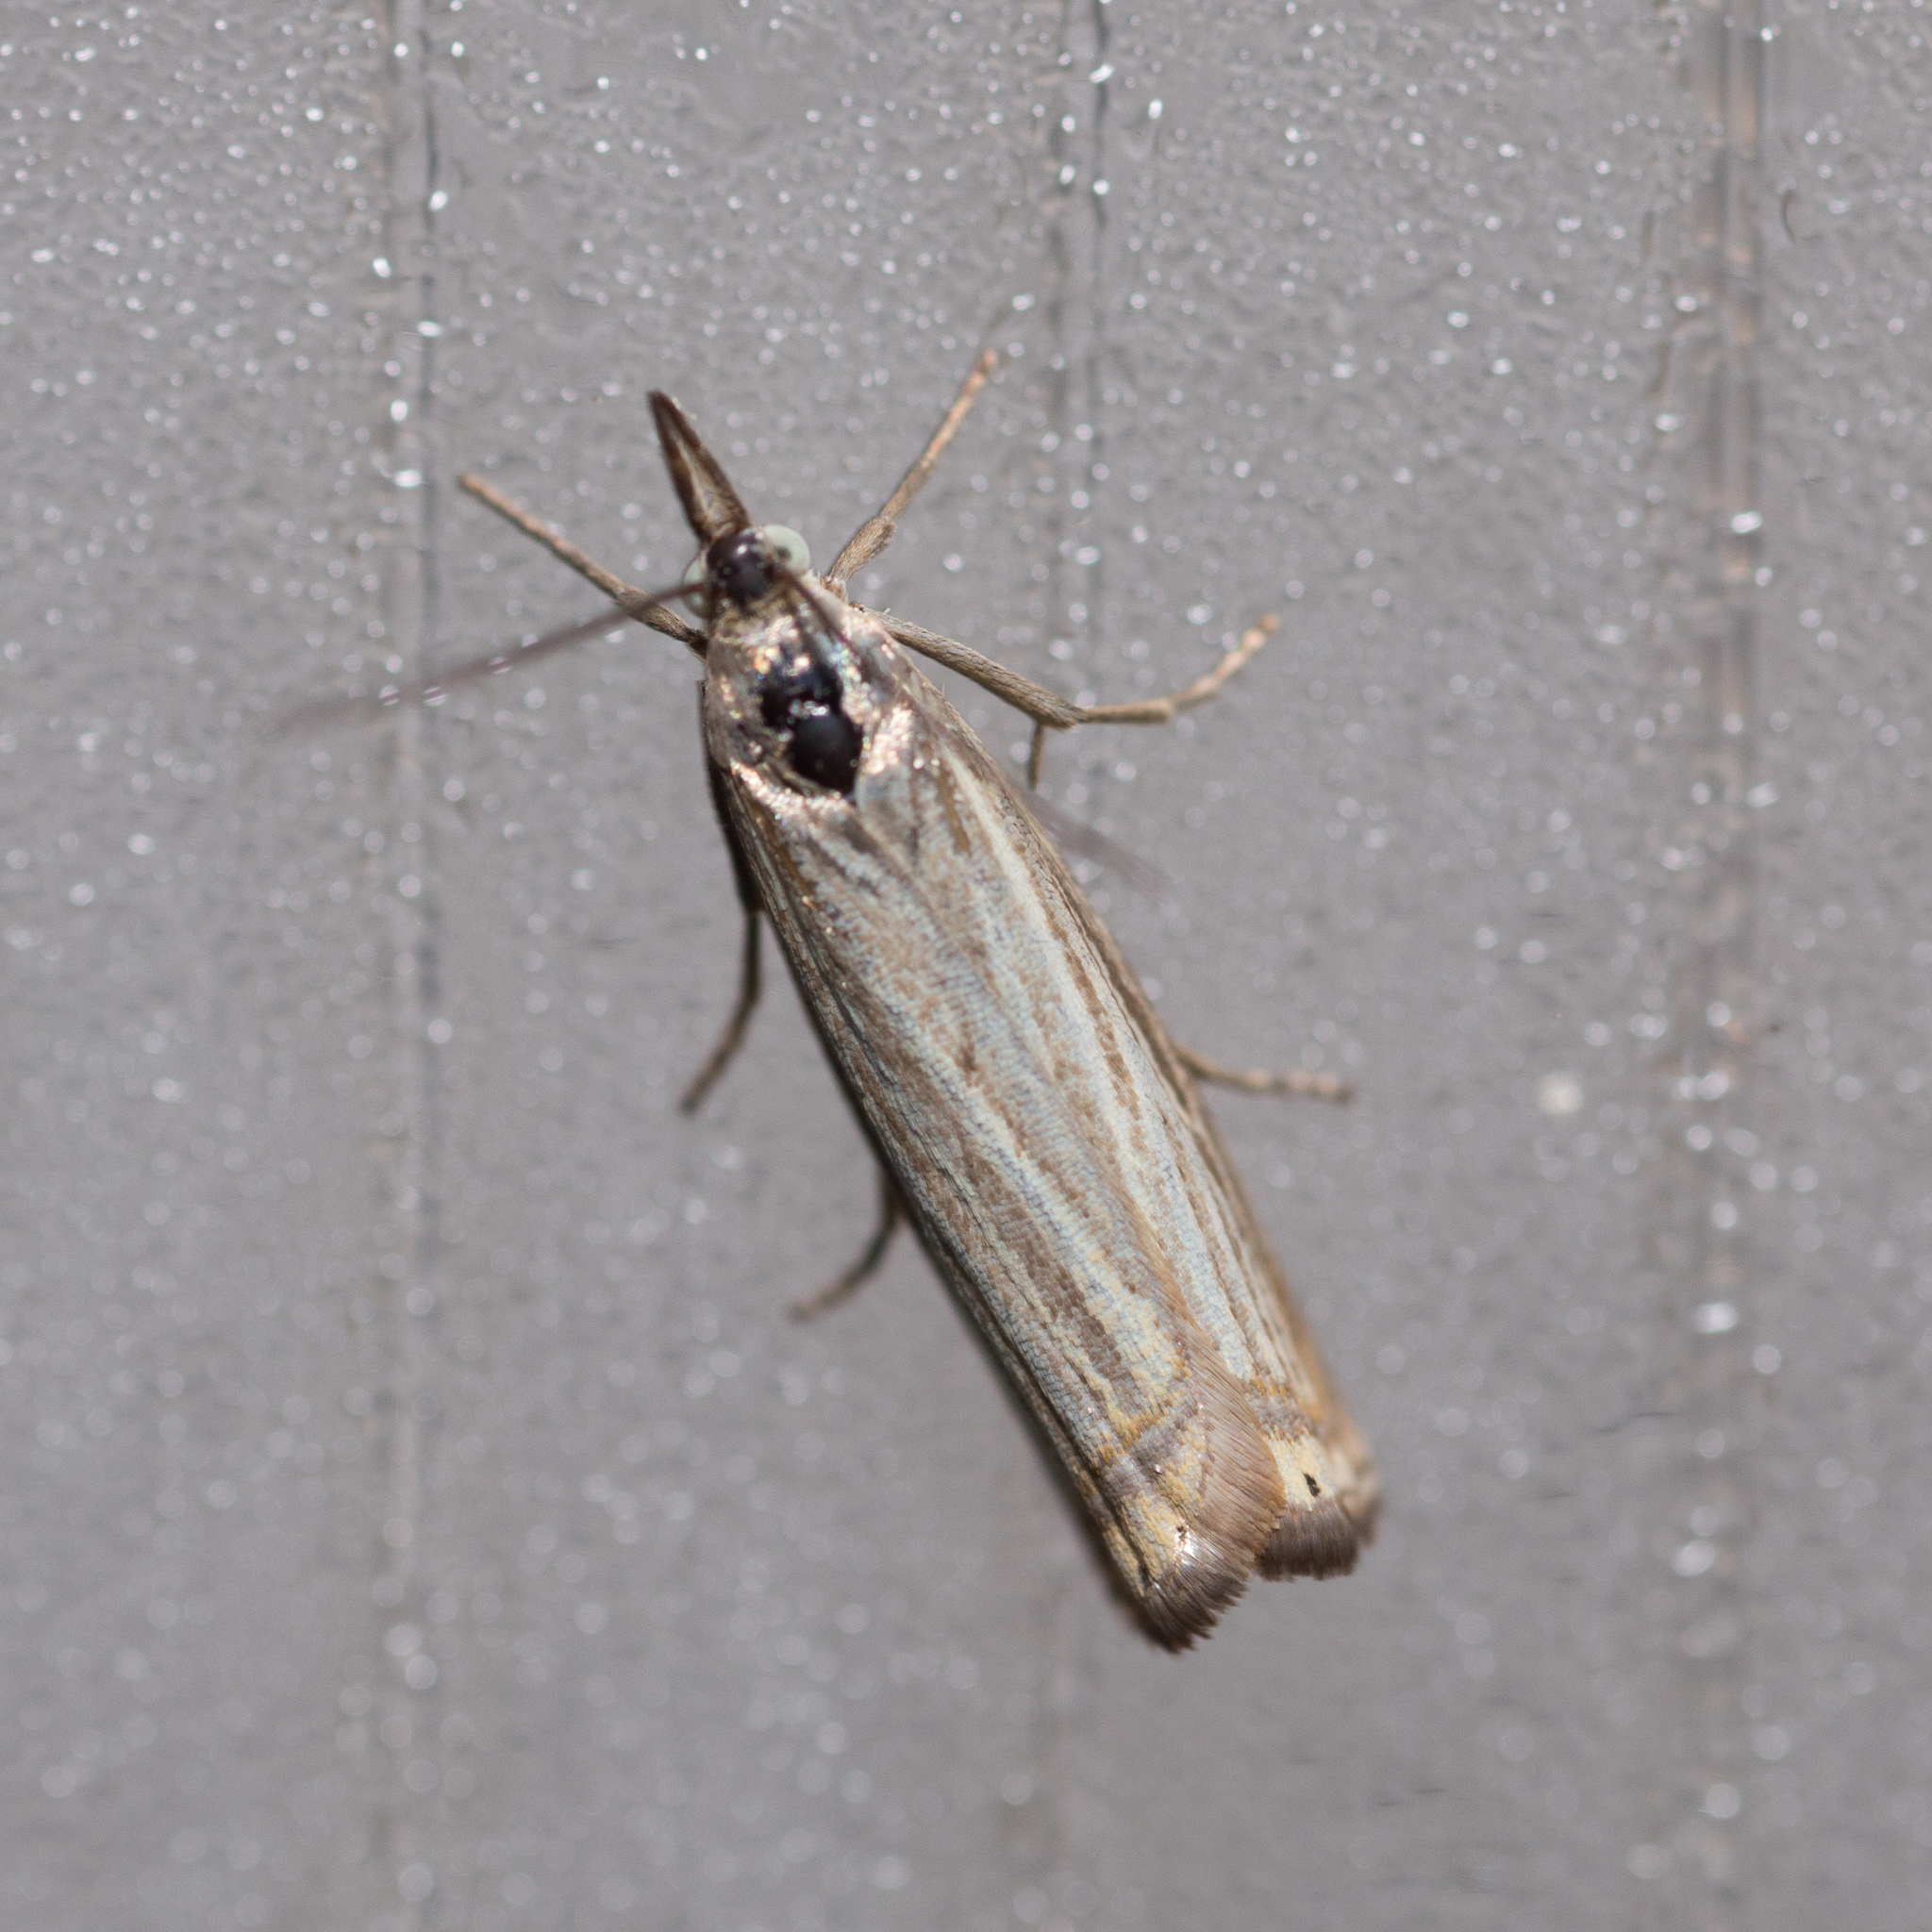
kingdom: Animalia
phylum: Arthropoda
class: Insecta
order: Lepidoptera
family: Crambidae
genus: Chrysoteuchia
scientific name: Chrysoteuchia culmella
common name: Garden grass-veneer
